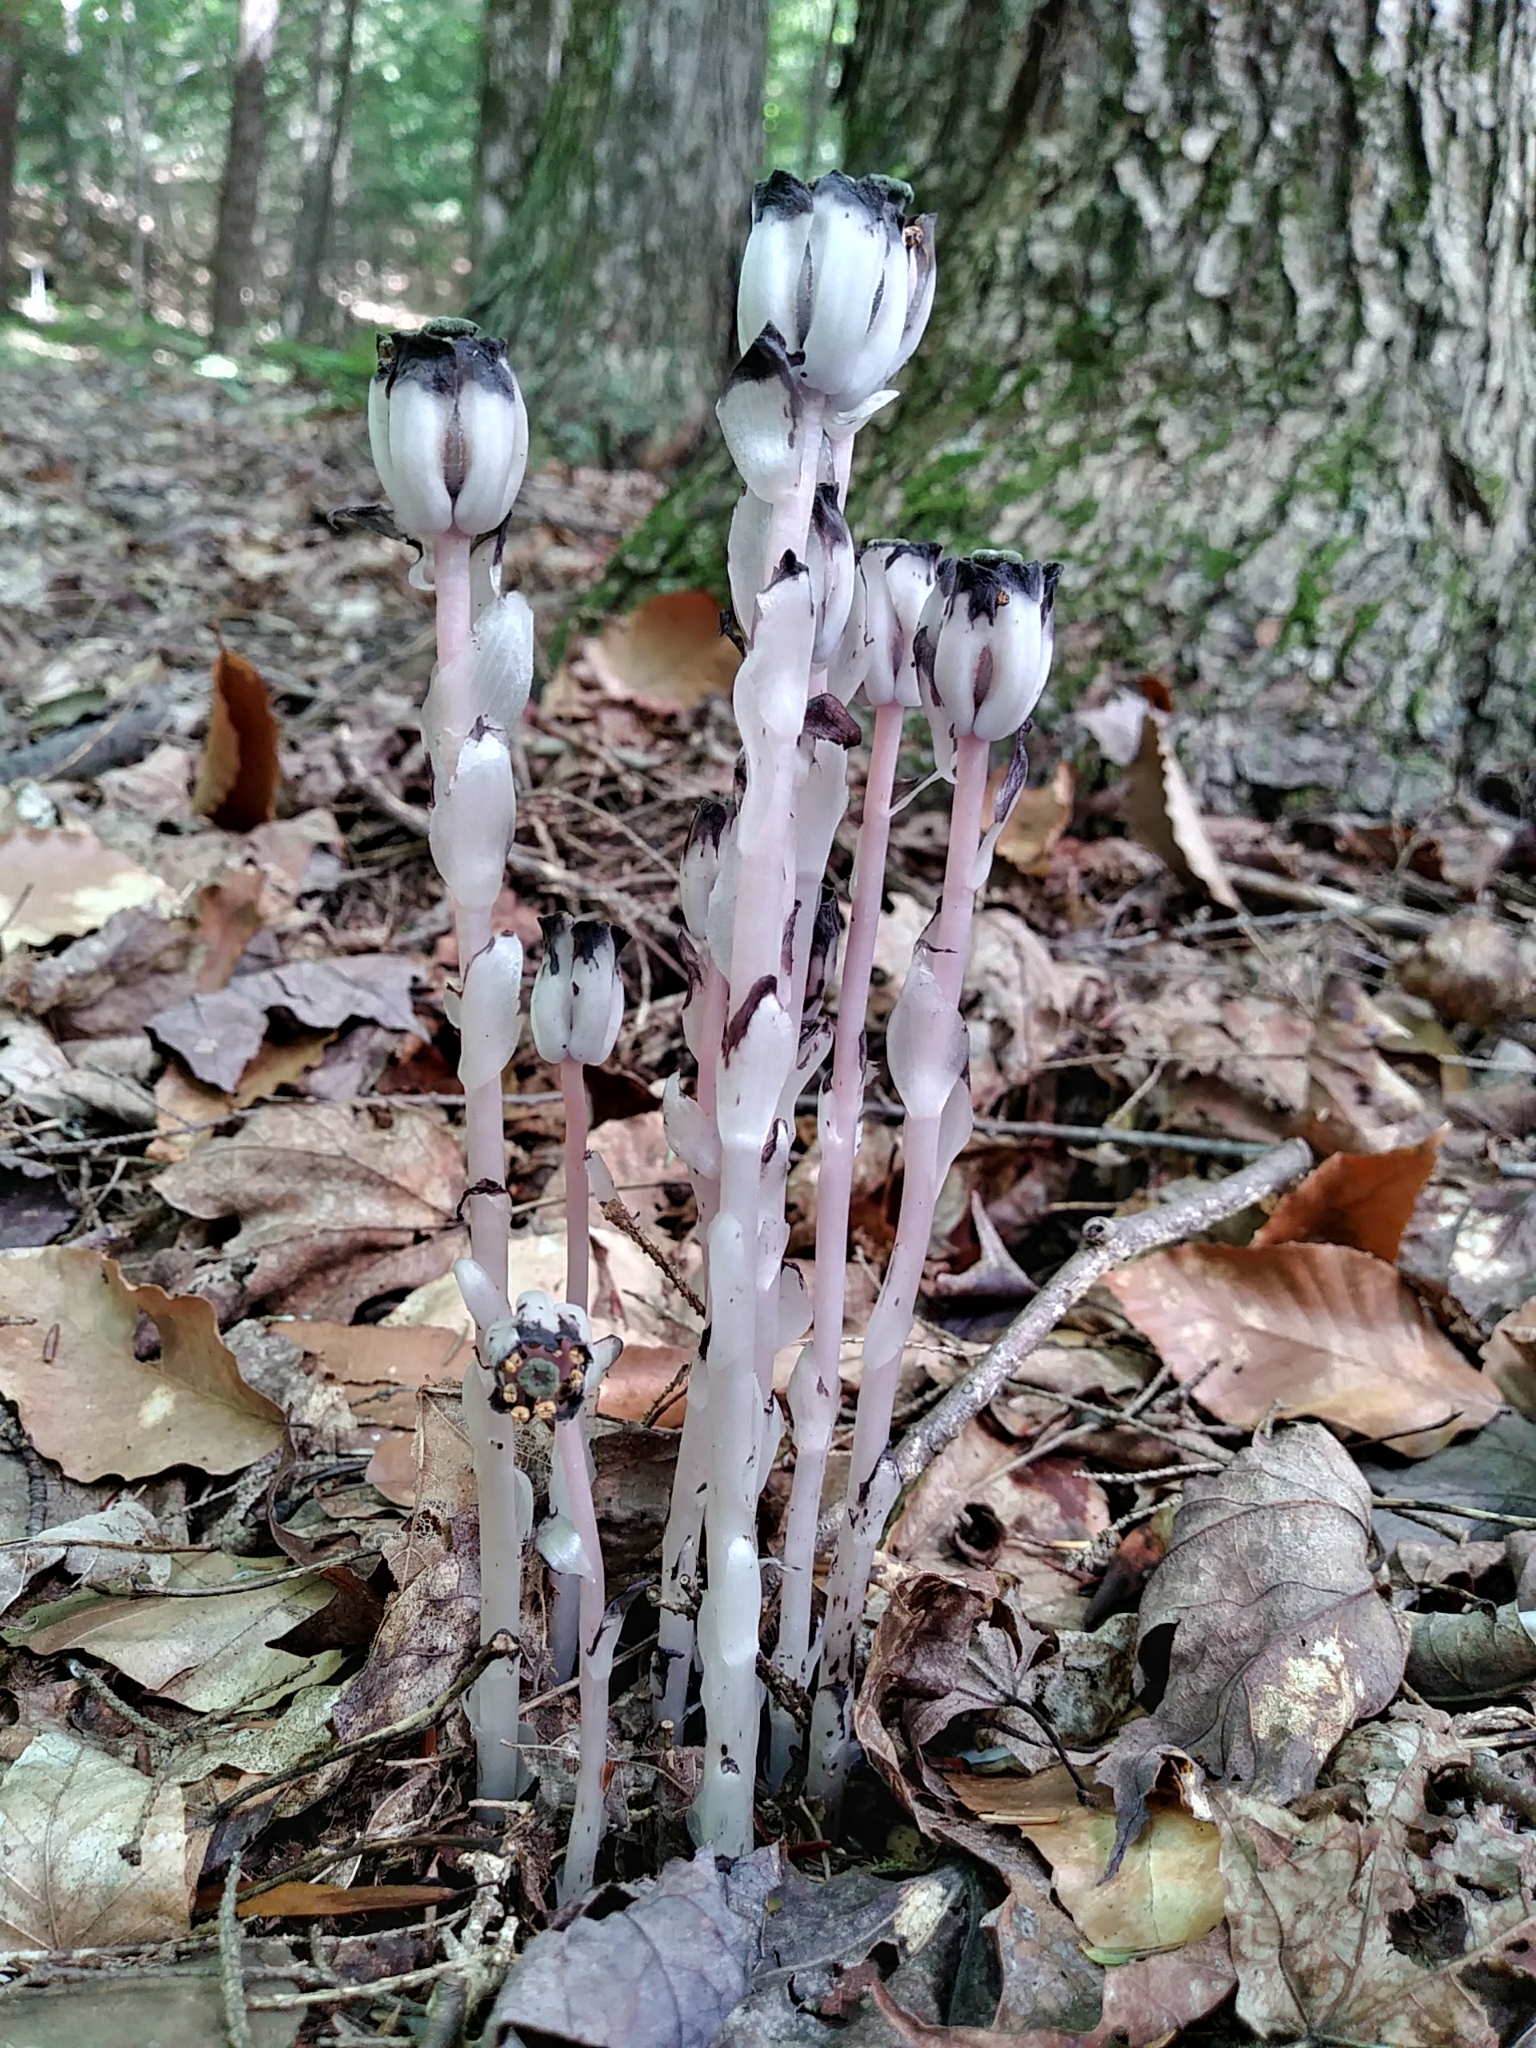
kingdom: Plantae
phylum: Tracheophyta
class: Magnoliopsida
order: Ericales
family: Ericaceae
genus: Monotropa
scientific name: Monotropa uniflora
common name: Convulsion root
